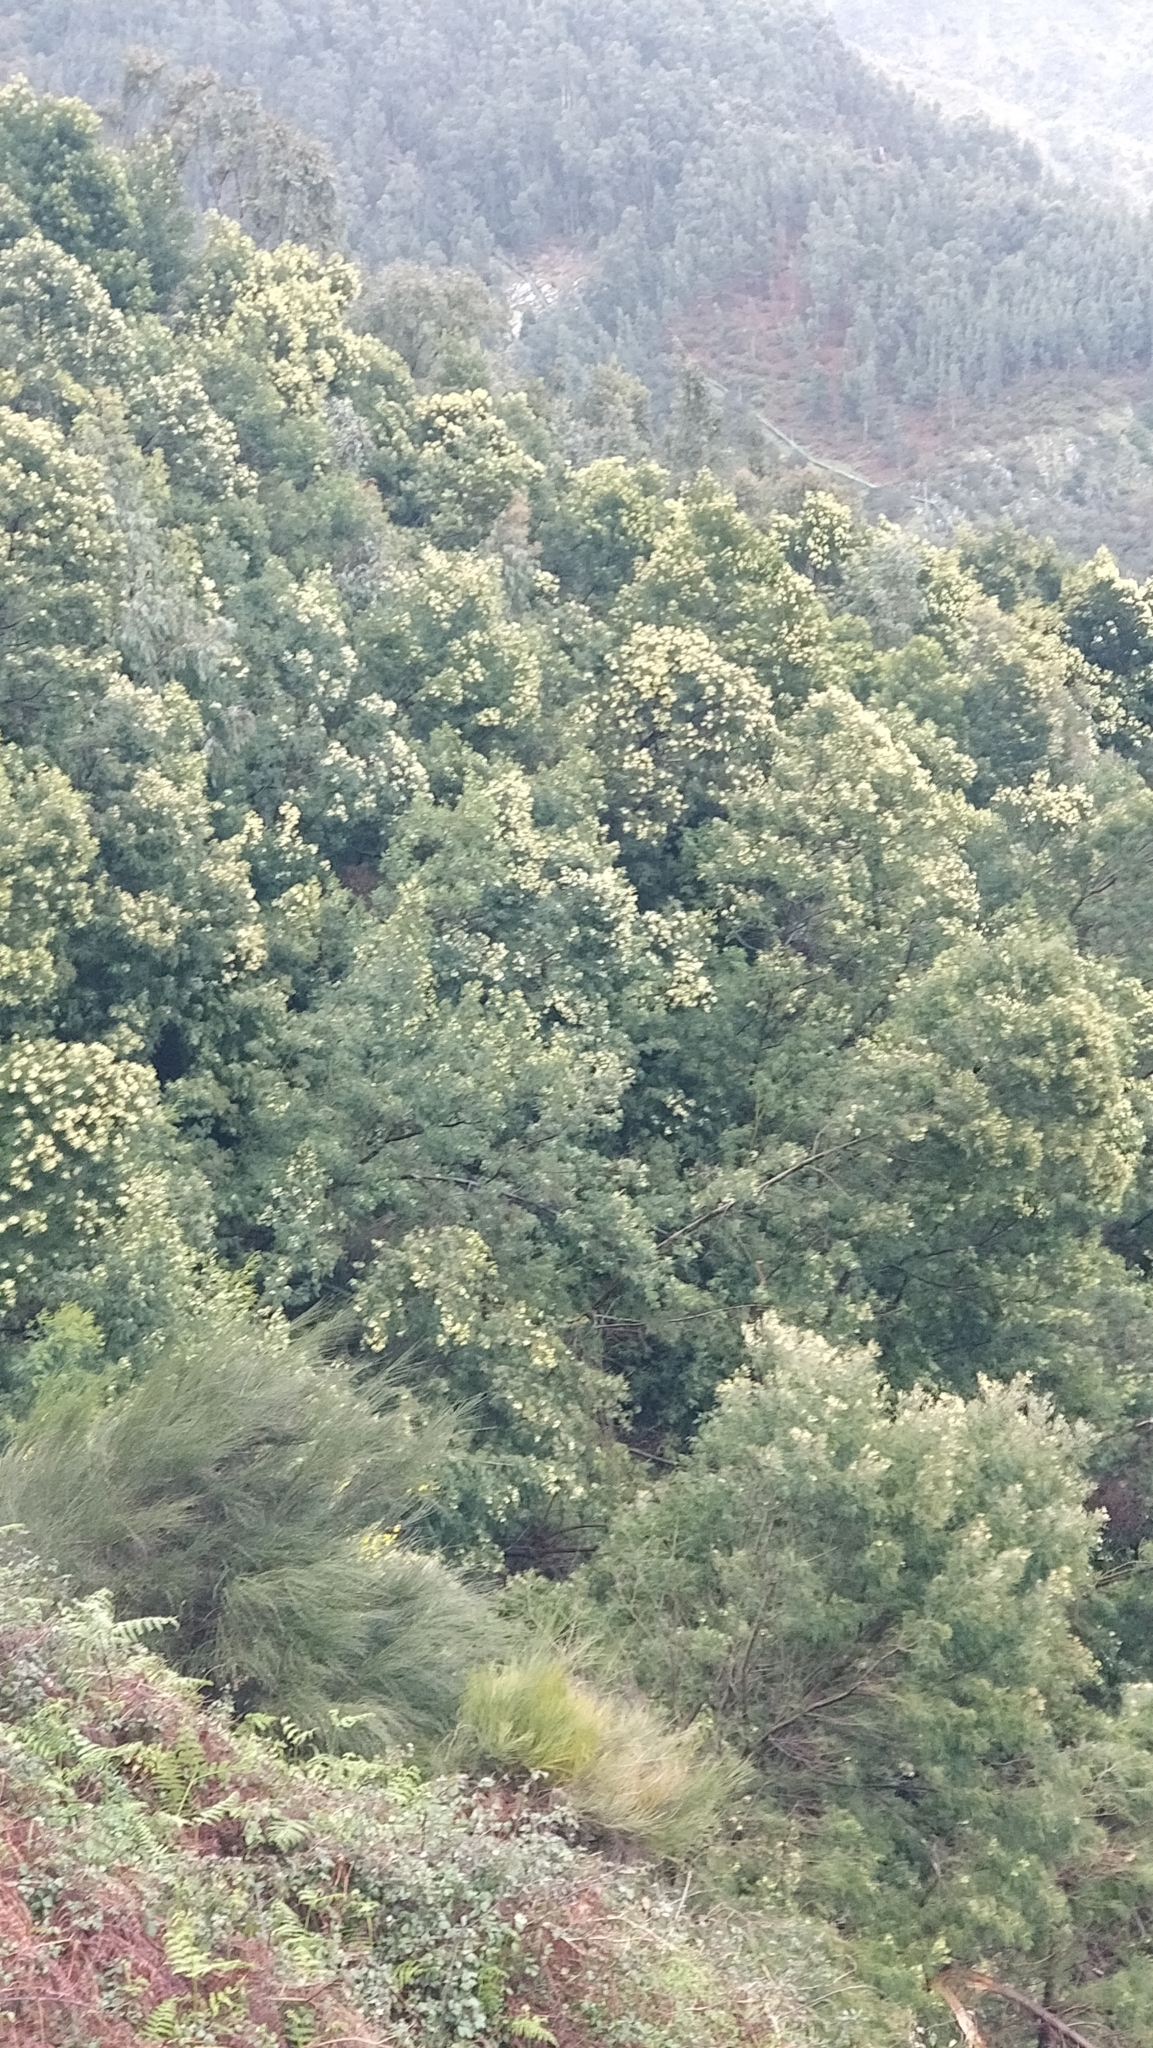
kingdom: Plantae
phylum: Tracheophyta
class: Magnoliopsida
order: Fabales
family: Fabaceae
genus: Acacia
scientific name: Acacia mearnsii
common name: Black wattle
